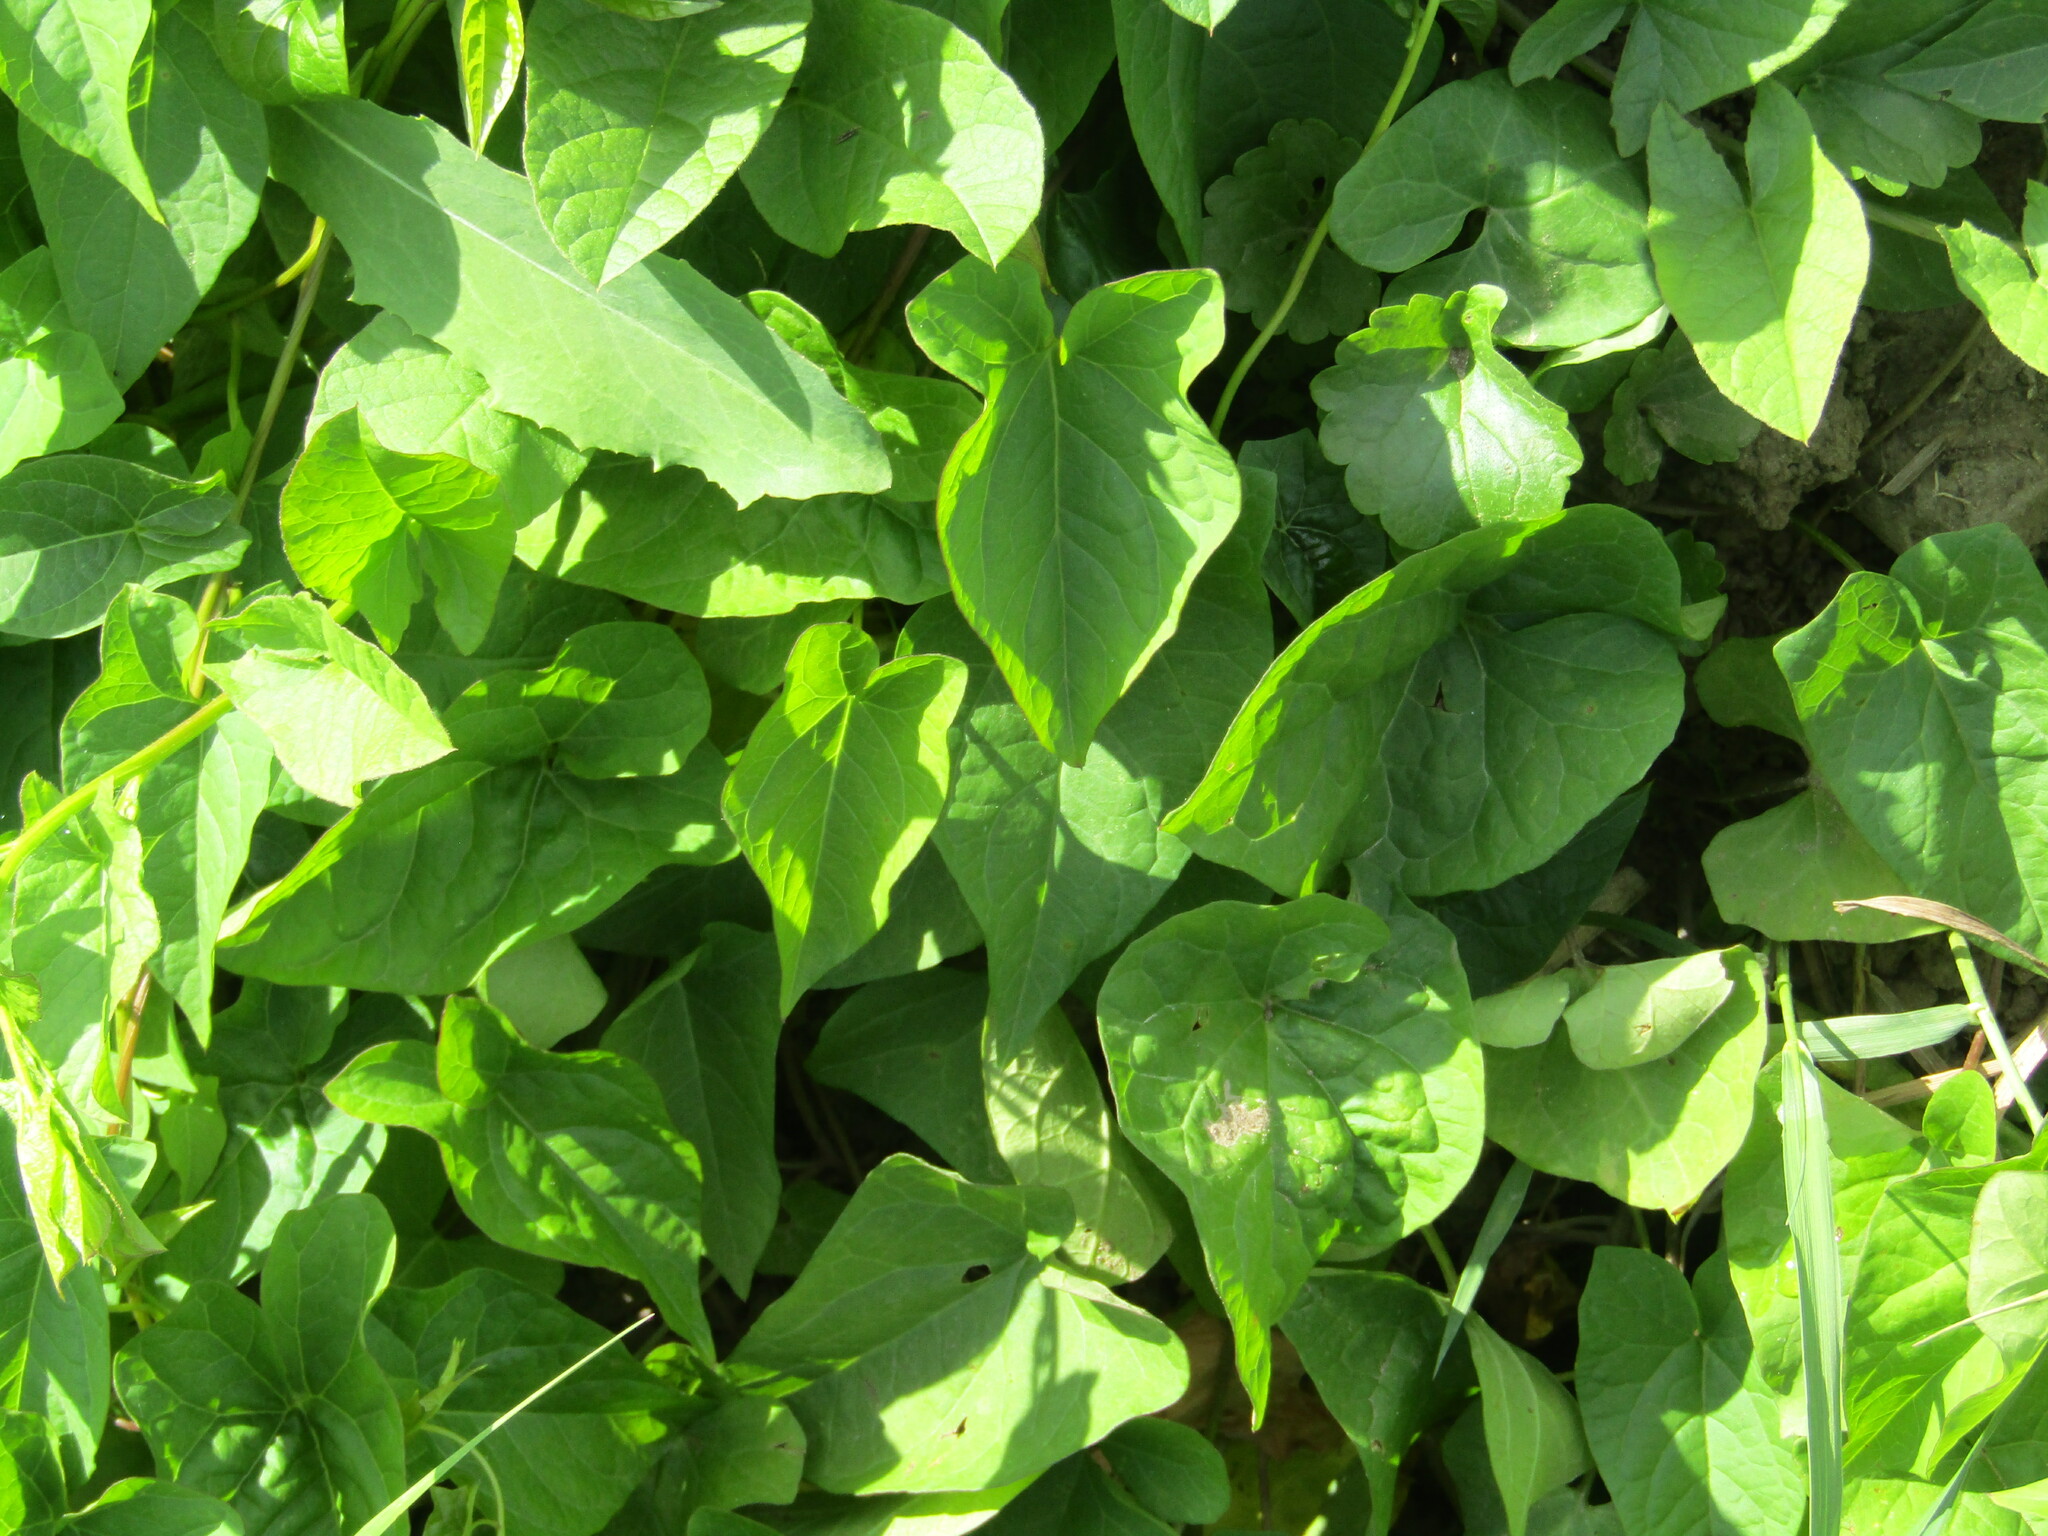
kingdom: Plantae
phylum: Tracheophyta
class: Magnoliopsida
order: Solanales
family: Convolvulaceae
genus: Calystegia
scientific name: Calystegia
